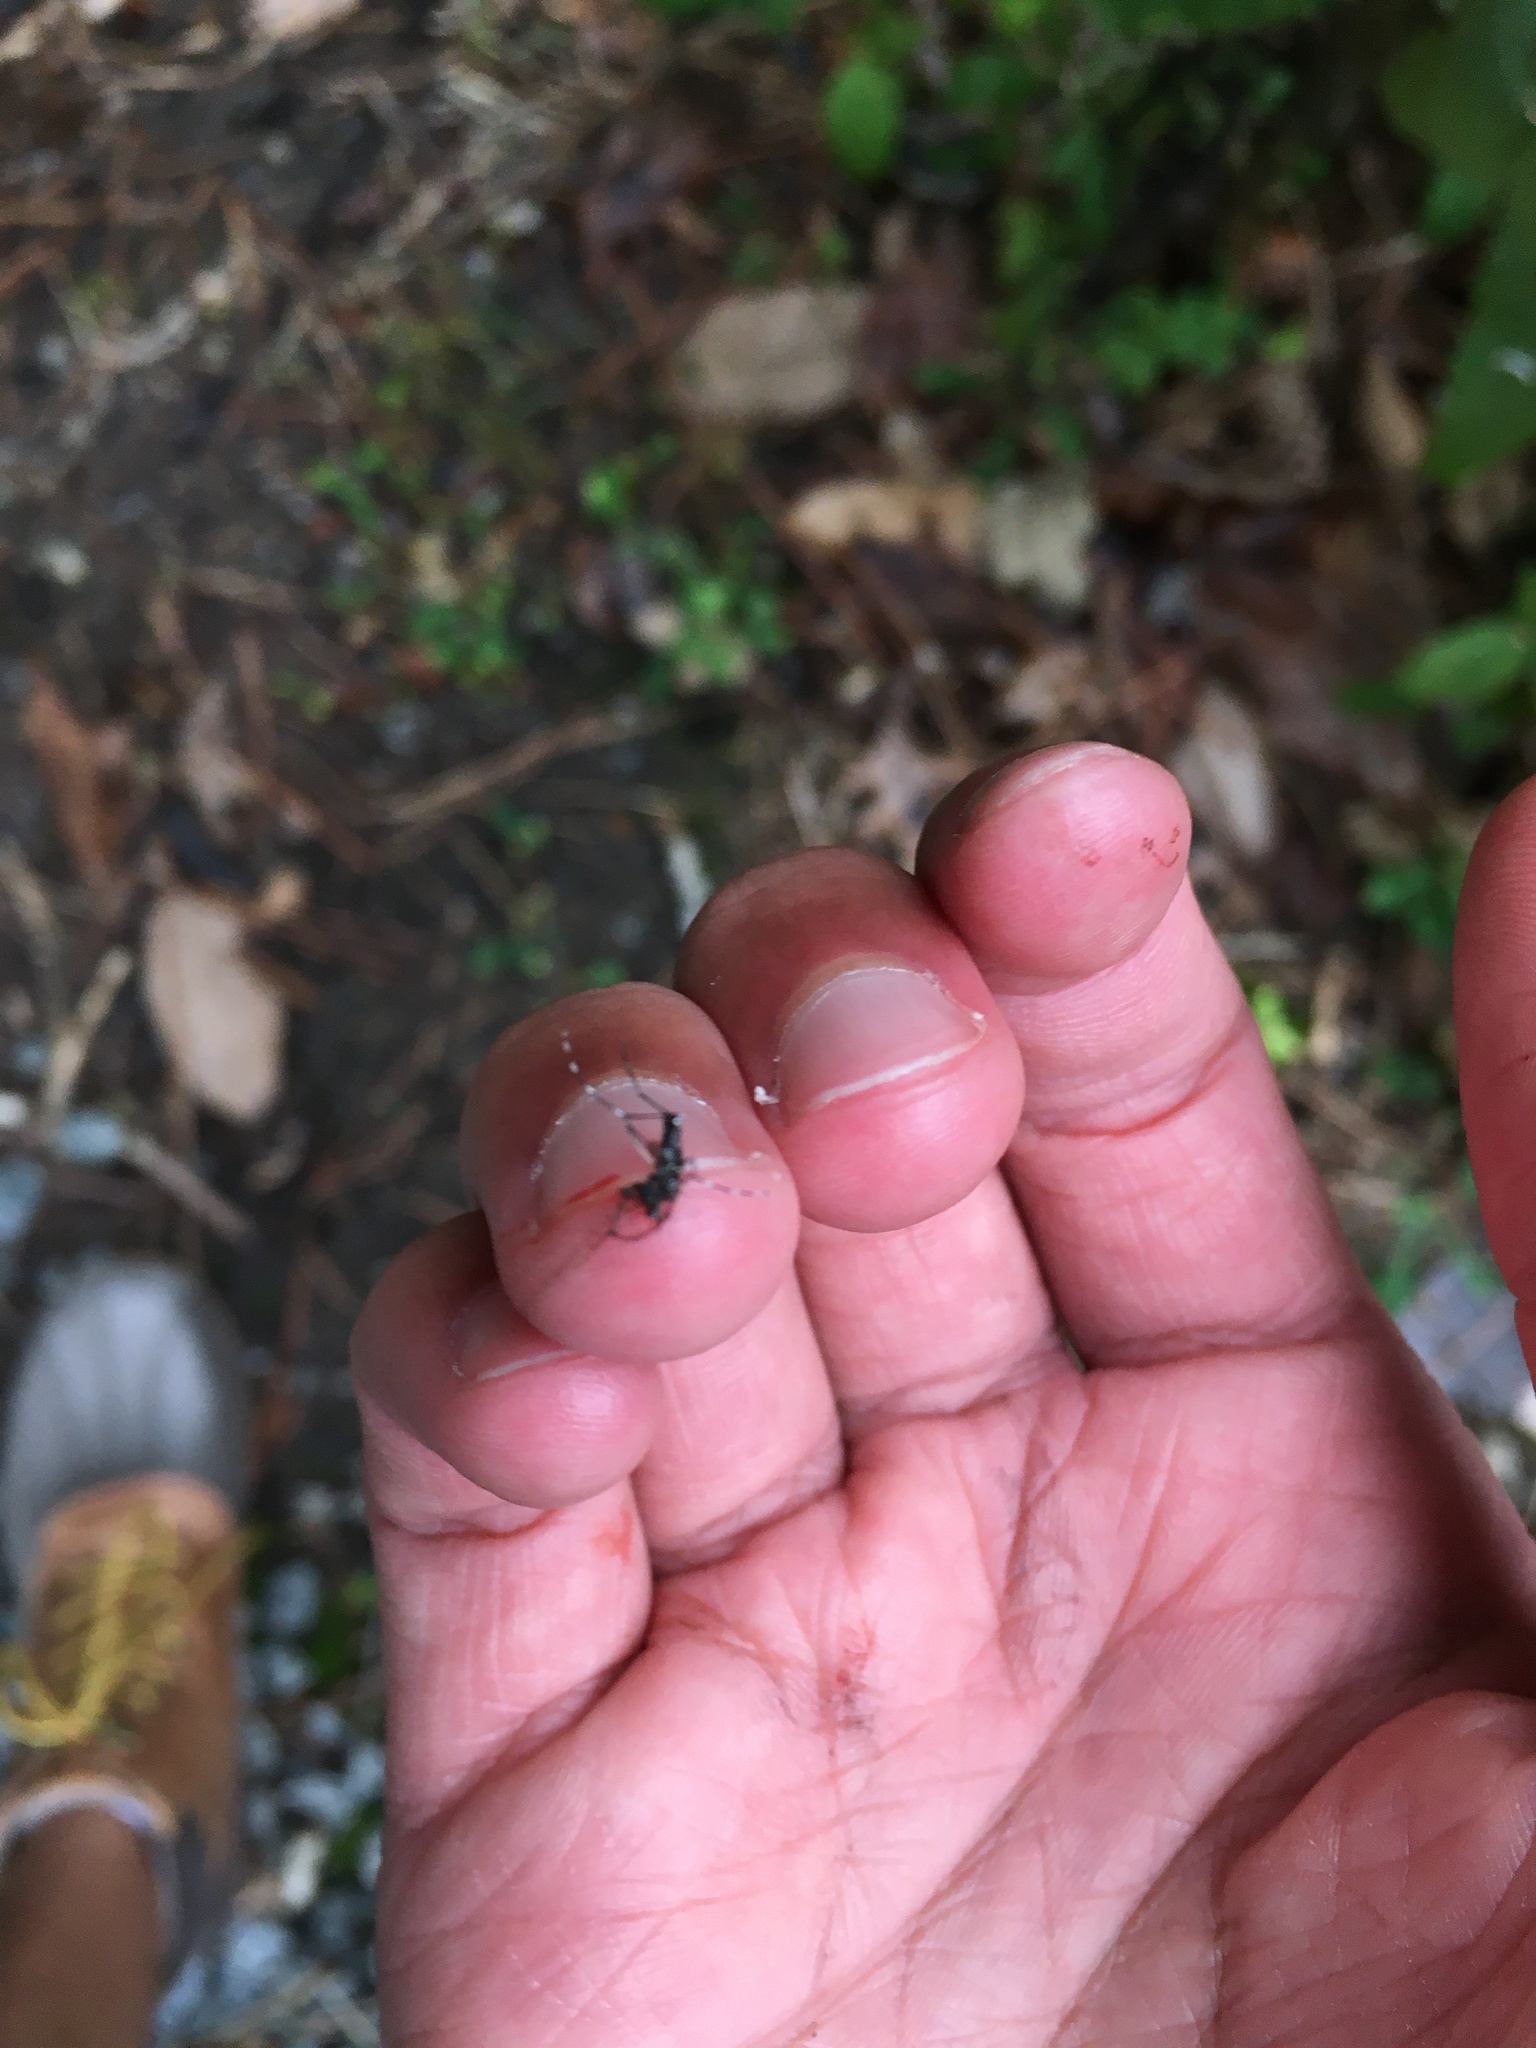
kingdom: Animalia
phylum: Arthropoda
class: Insecta
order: Diptera
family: Culicidae
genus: Aedes
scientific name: Aedes albopictus
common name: Tiger mosquito
